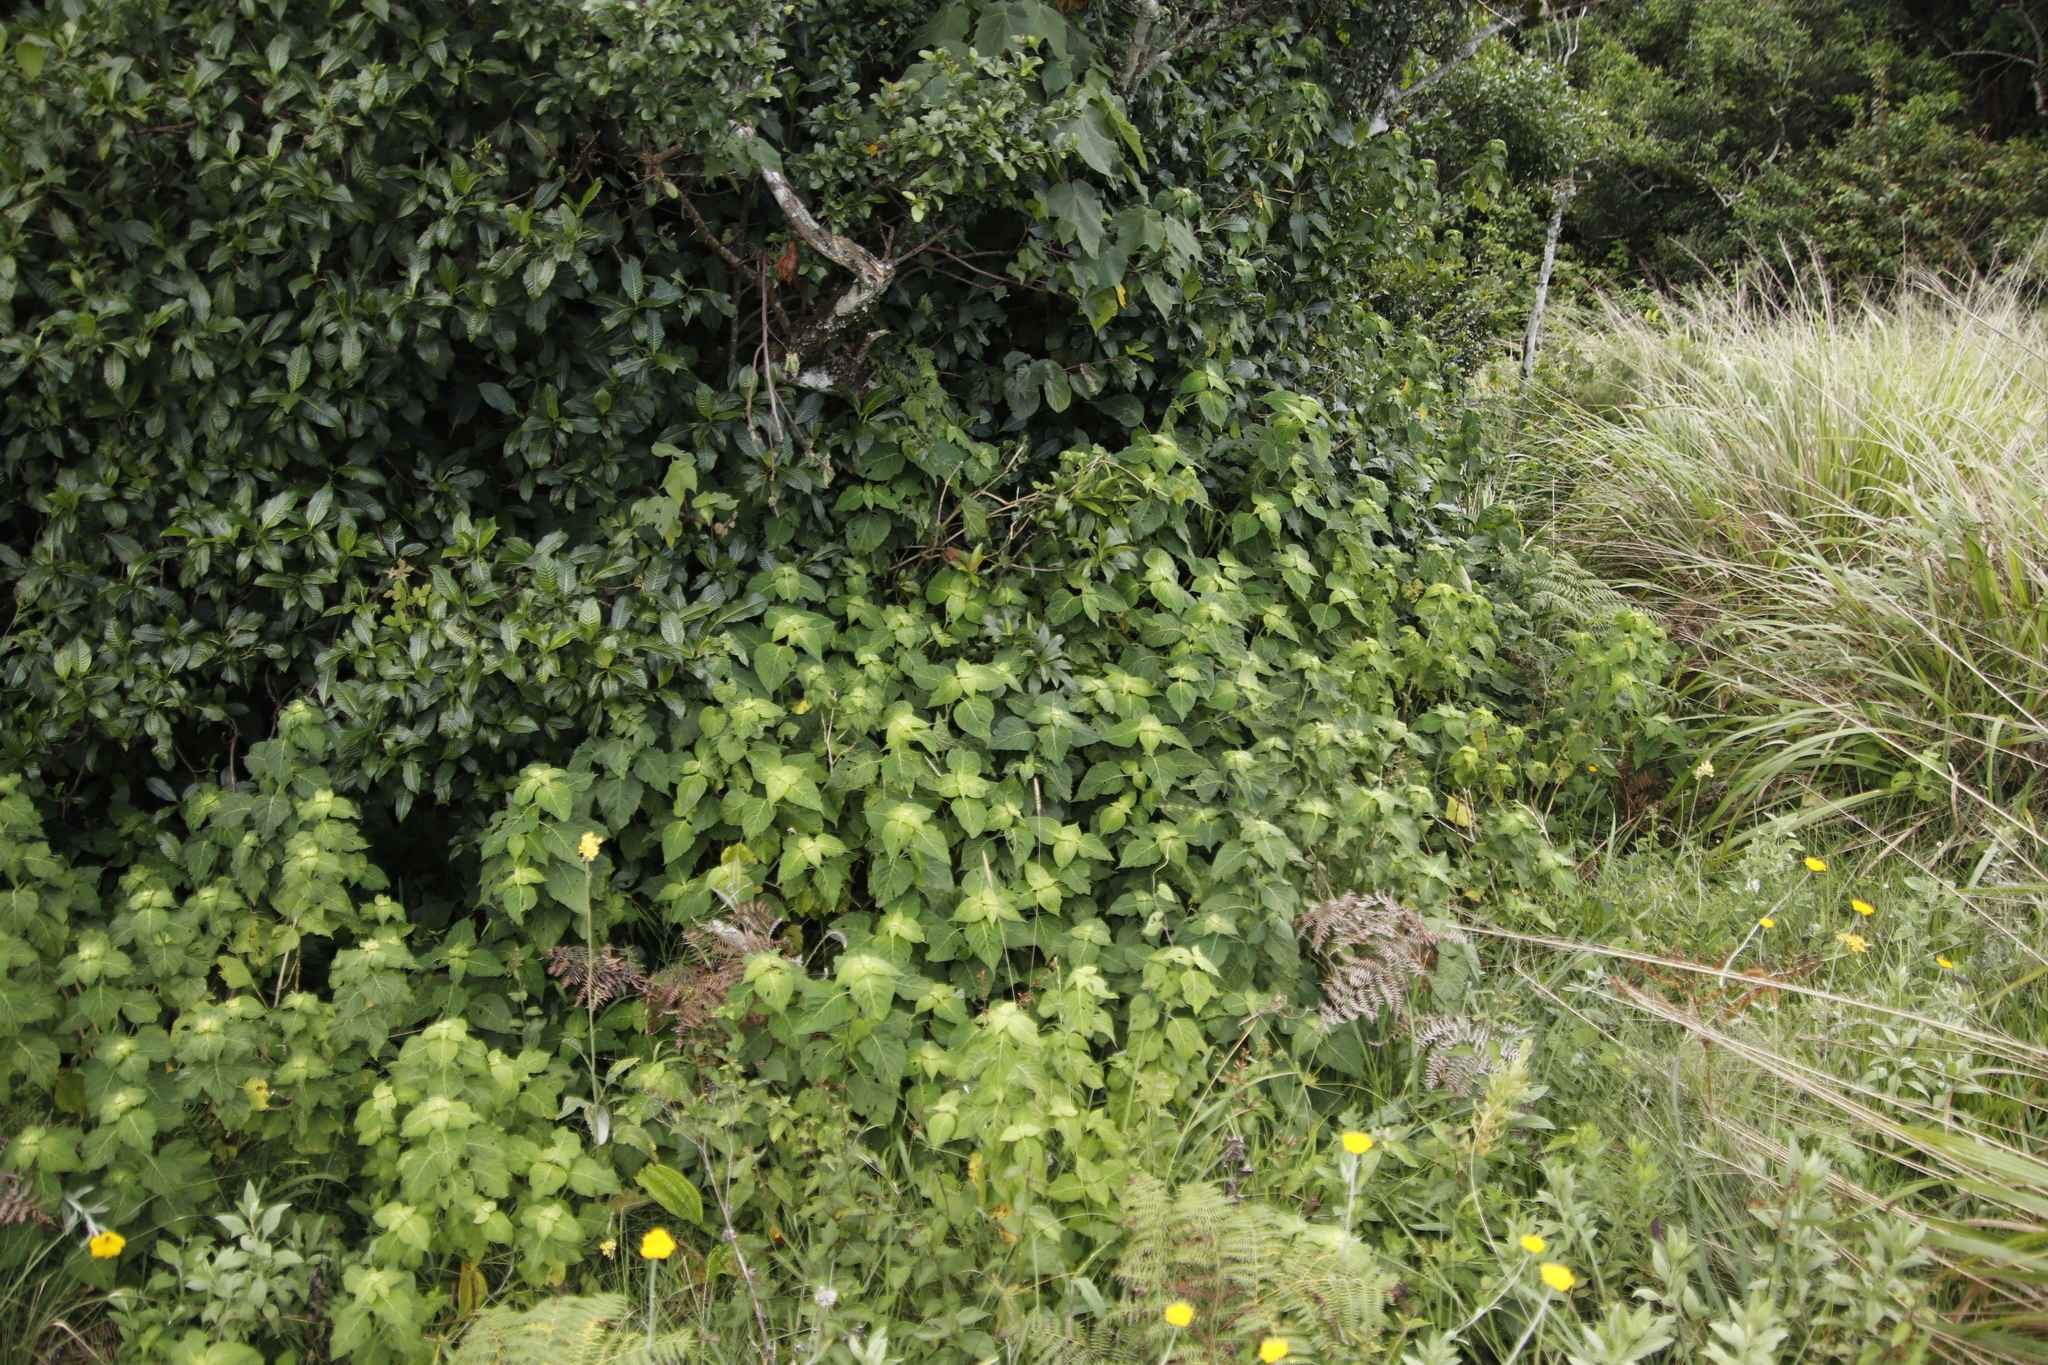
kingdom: Plantae
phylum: Tracheophyta
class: Magnoliopsida
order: Lamiales
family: Acanthaceae
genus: Hypoestes
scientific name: Hypoestes aristata
